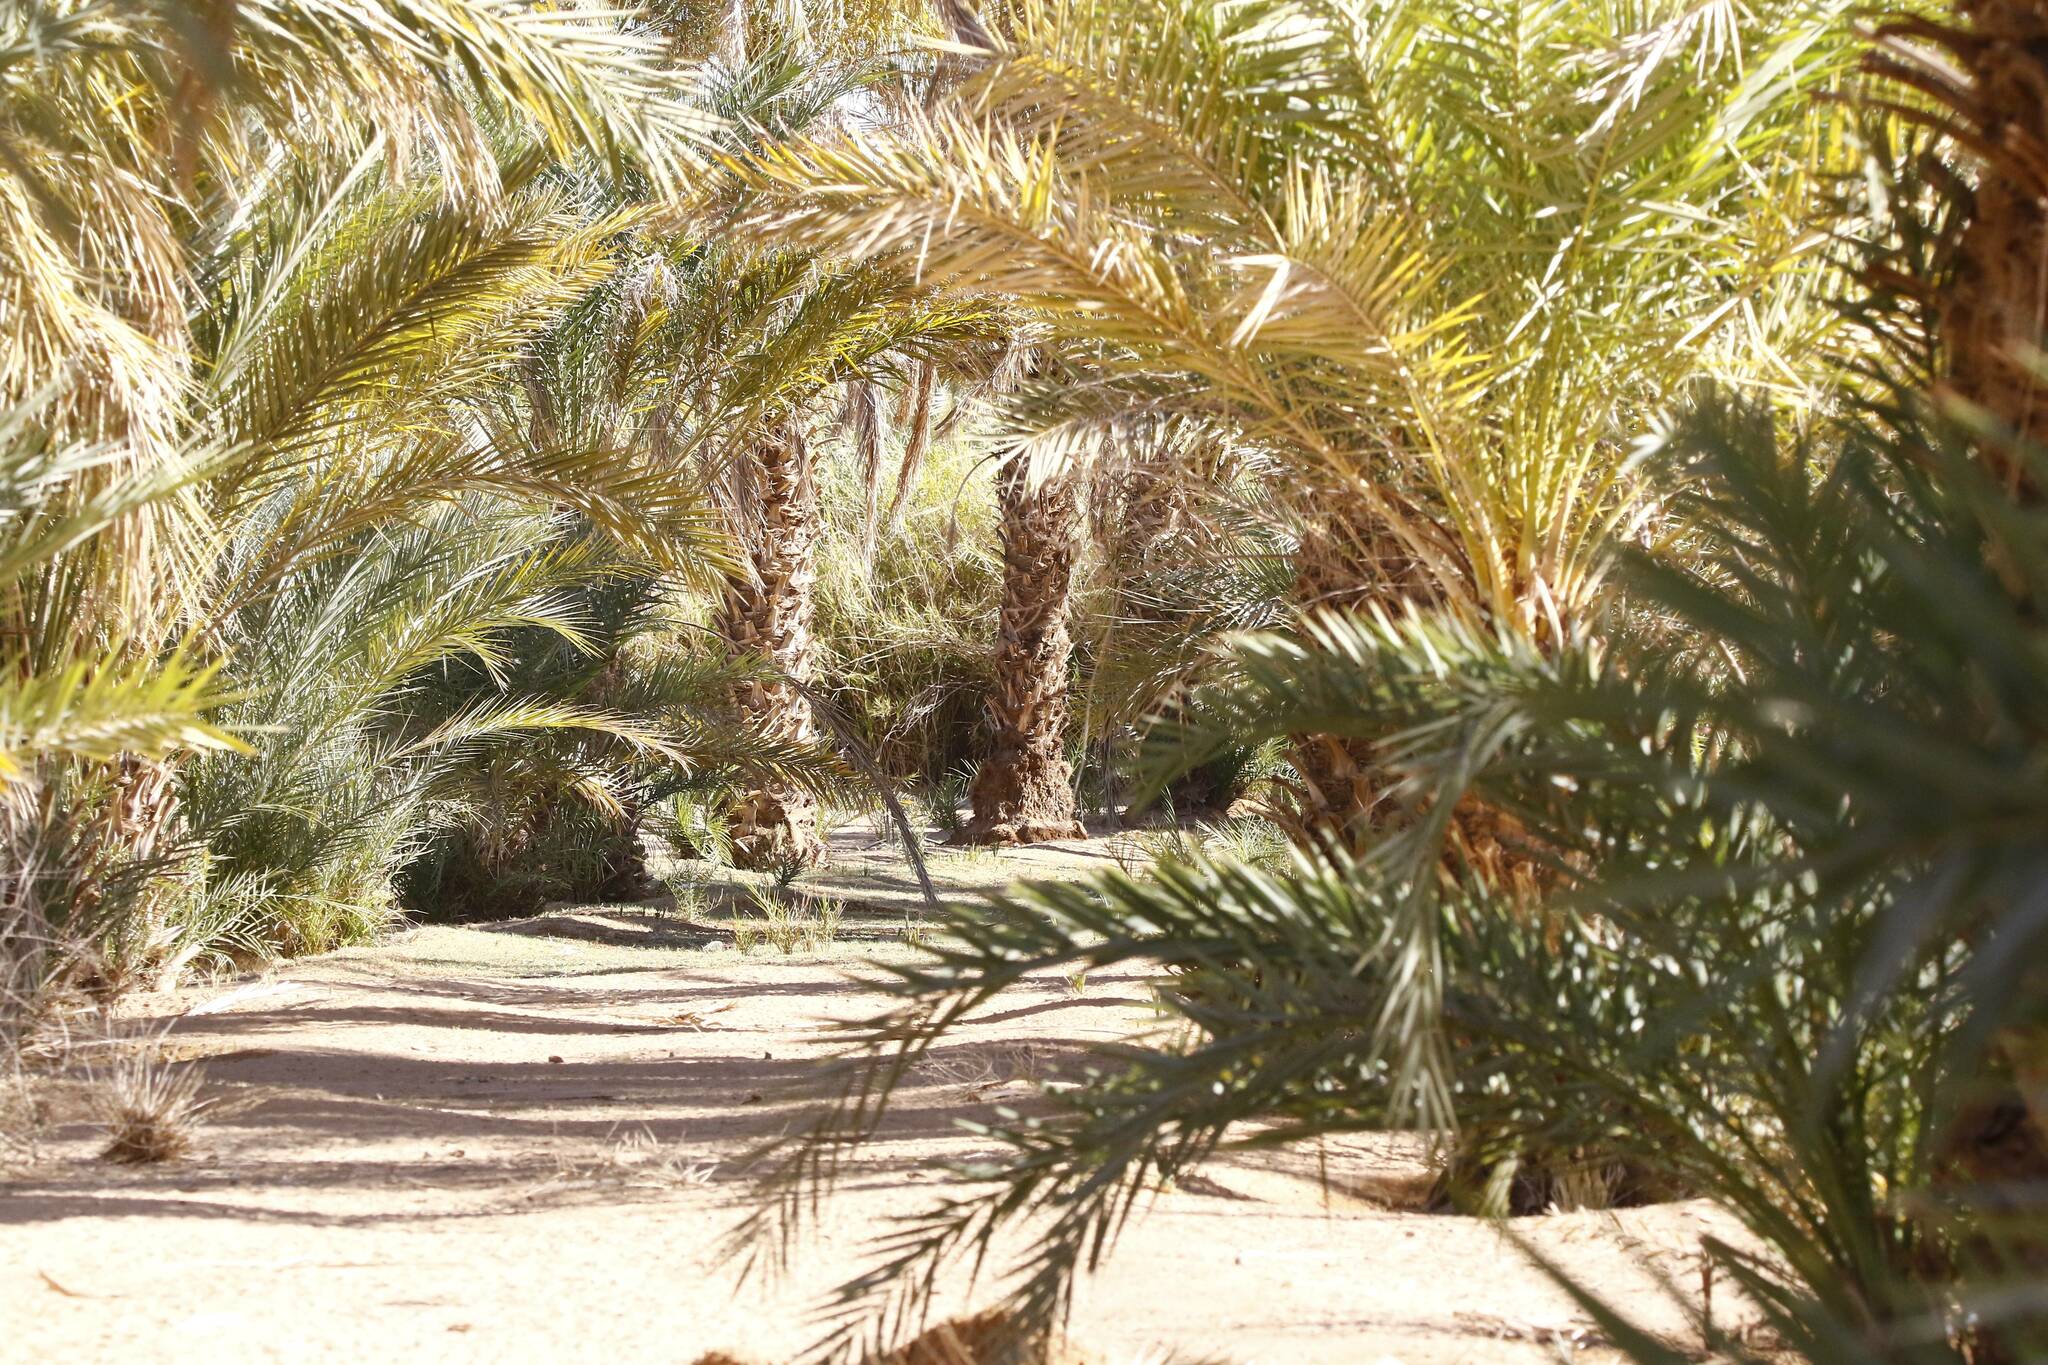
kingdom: Plantae
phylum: Tracheophyta
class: Liliopsida
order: Arecales
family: Arecaceae
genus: Phoenix
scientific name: Phoenix dactylifera
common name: Date palm
